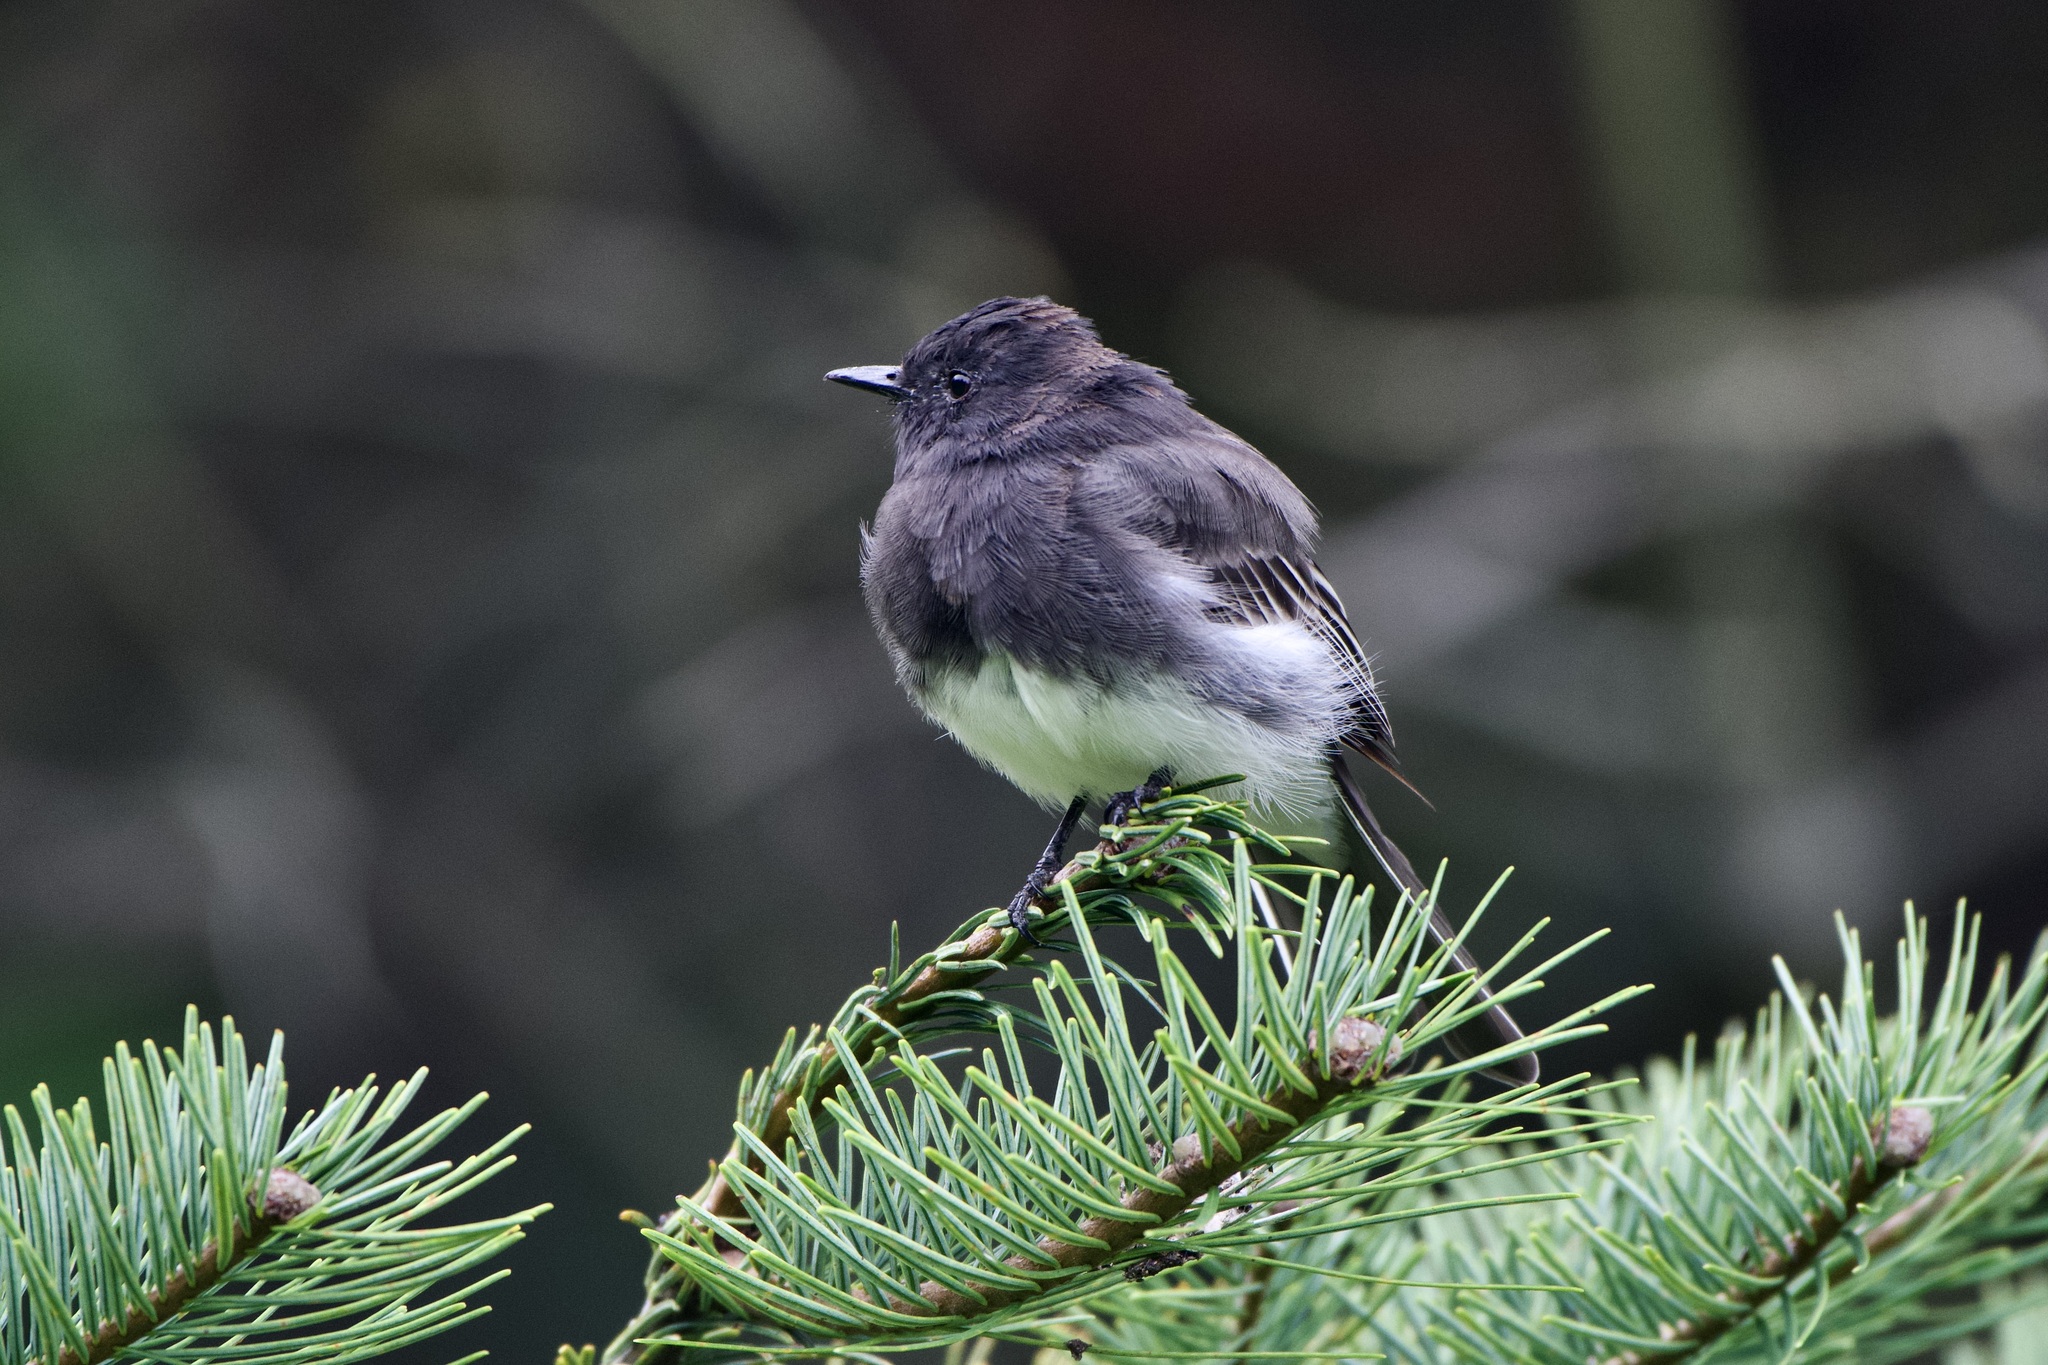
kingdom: Animalia
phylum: Chordata
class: Aves
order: Passeriformes
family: Tyrannidae
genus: Sayornis
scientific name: Sayornis nigricans
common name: Black phoebe
